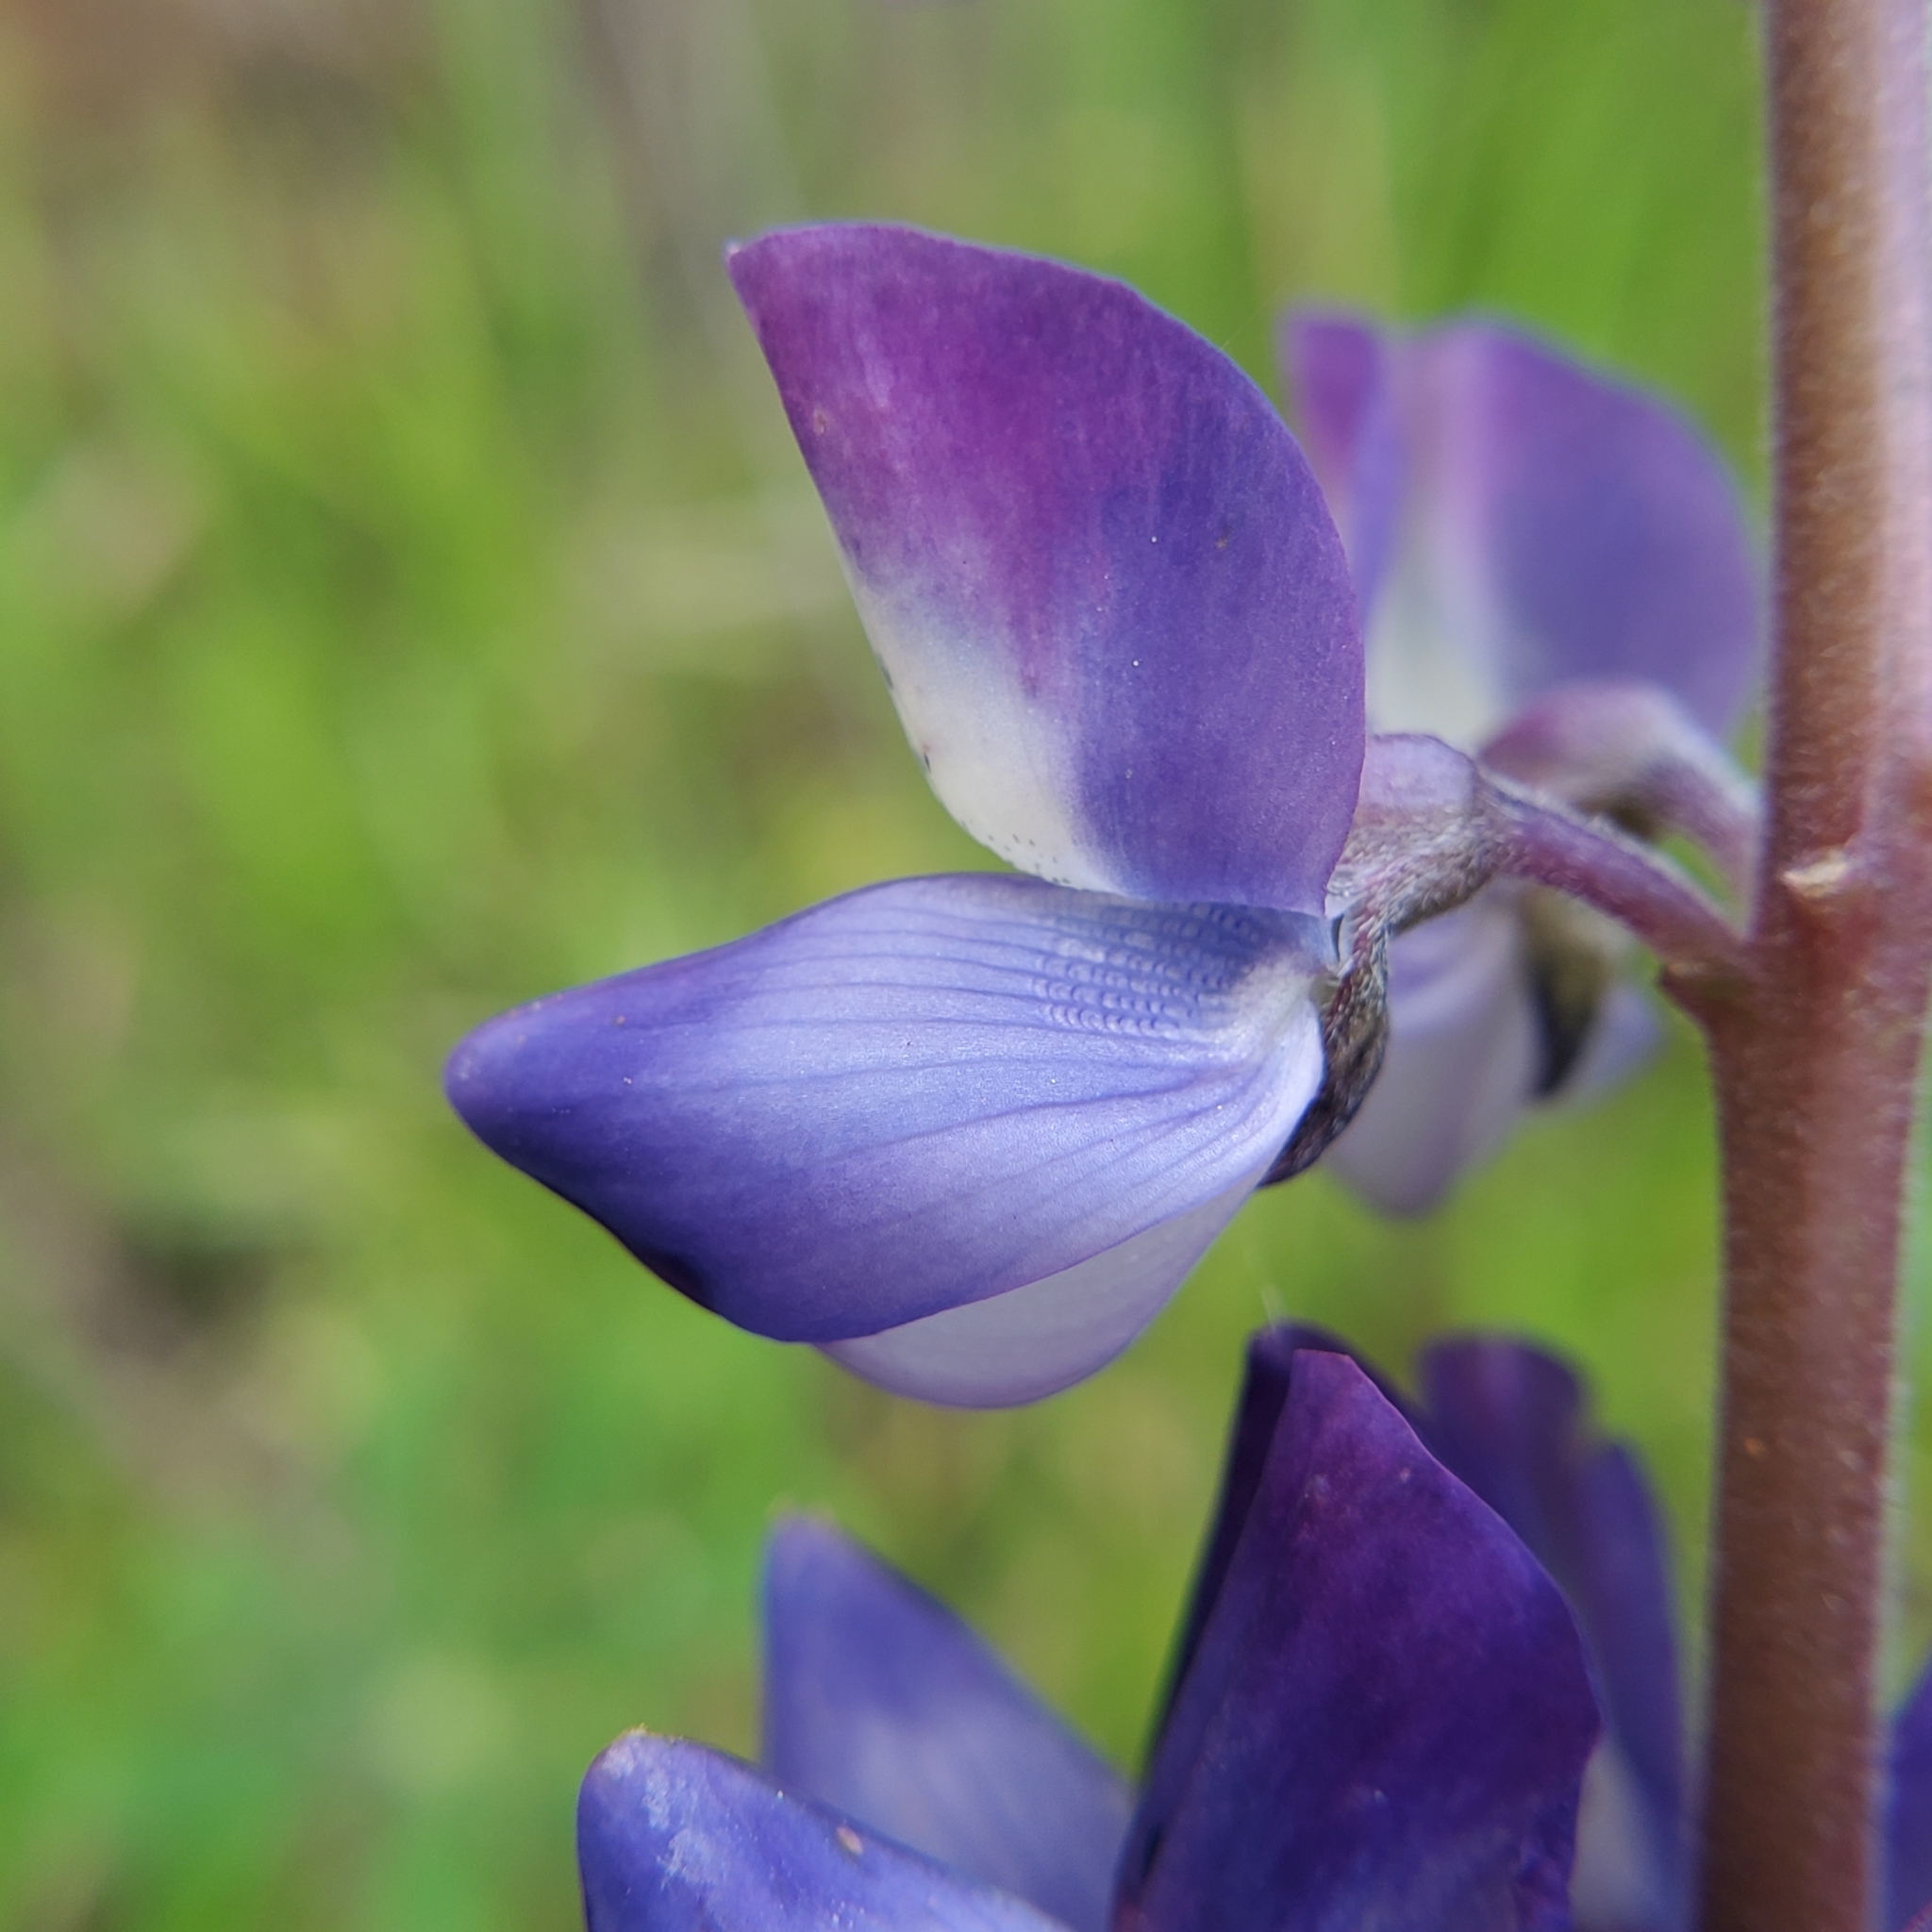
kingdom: Plantae
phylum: Tracheophyta
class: Magnoliopsida
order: Fabales
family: Fabaceae
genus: Lupinus
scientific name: Lupinus succulentus
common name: Arroyo lupine
